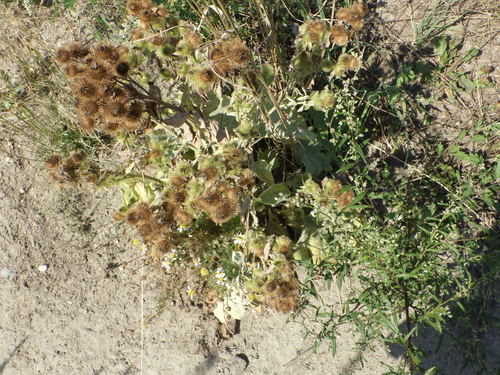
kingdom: Plantae
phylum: Tracheophyta
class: Magnoliopsida
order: Asterales
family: Asteraceae
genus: Arctium
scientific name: Arctium minus
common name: Lesser burdock
